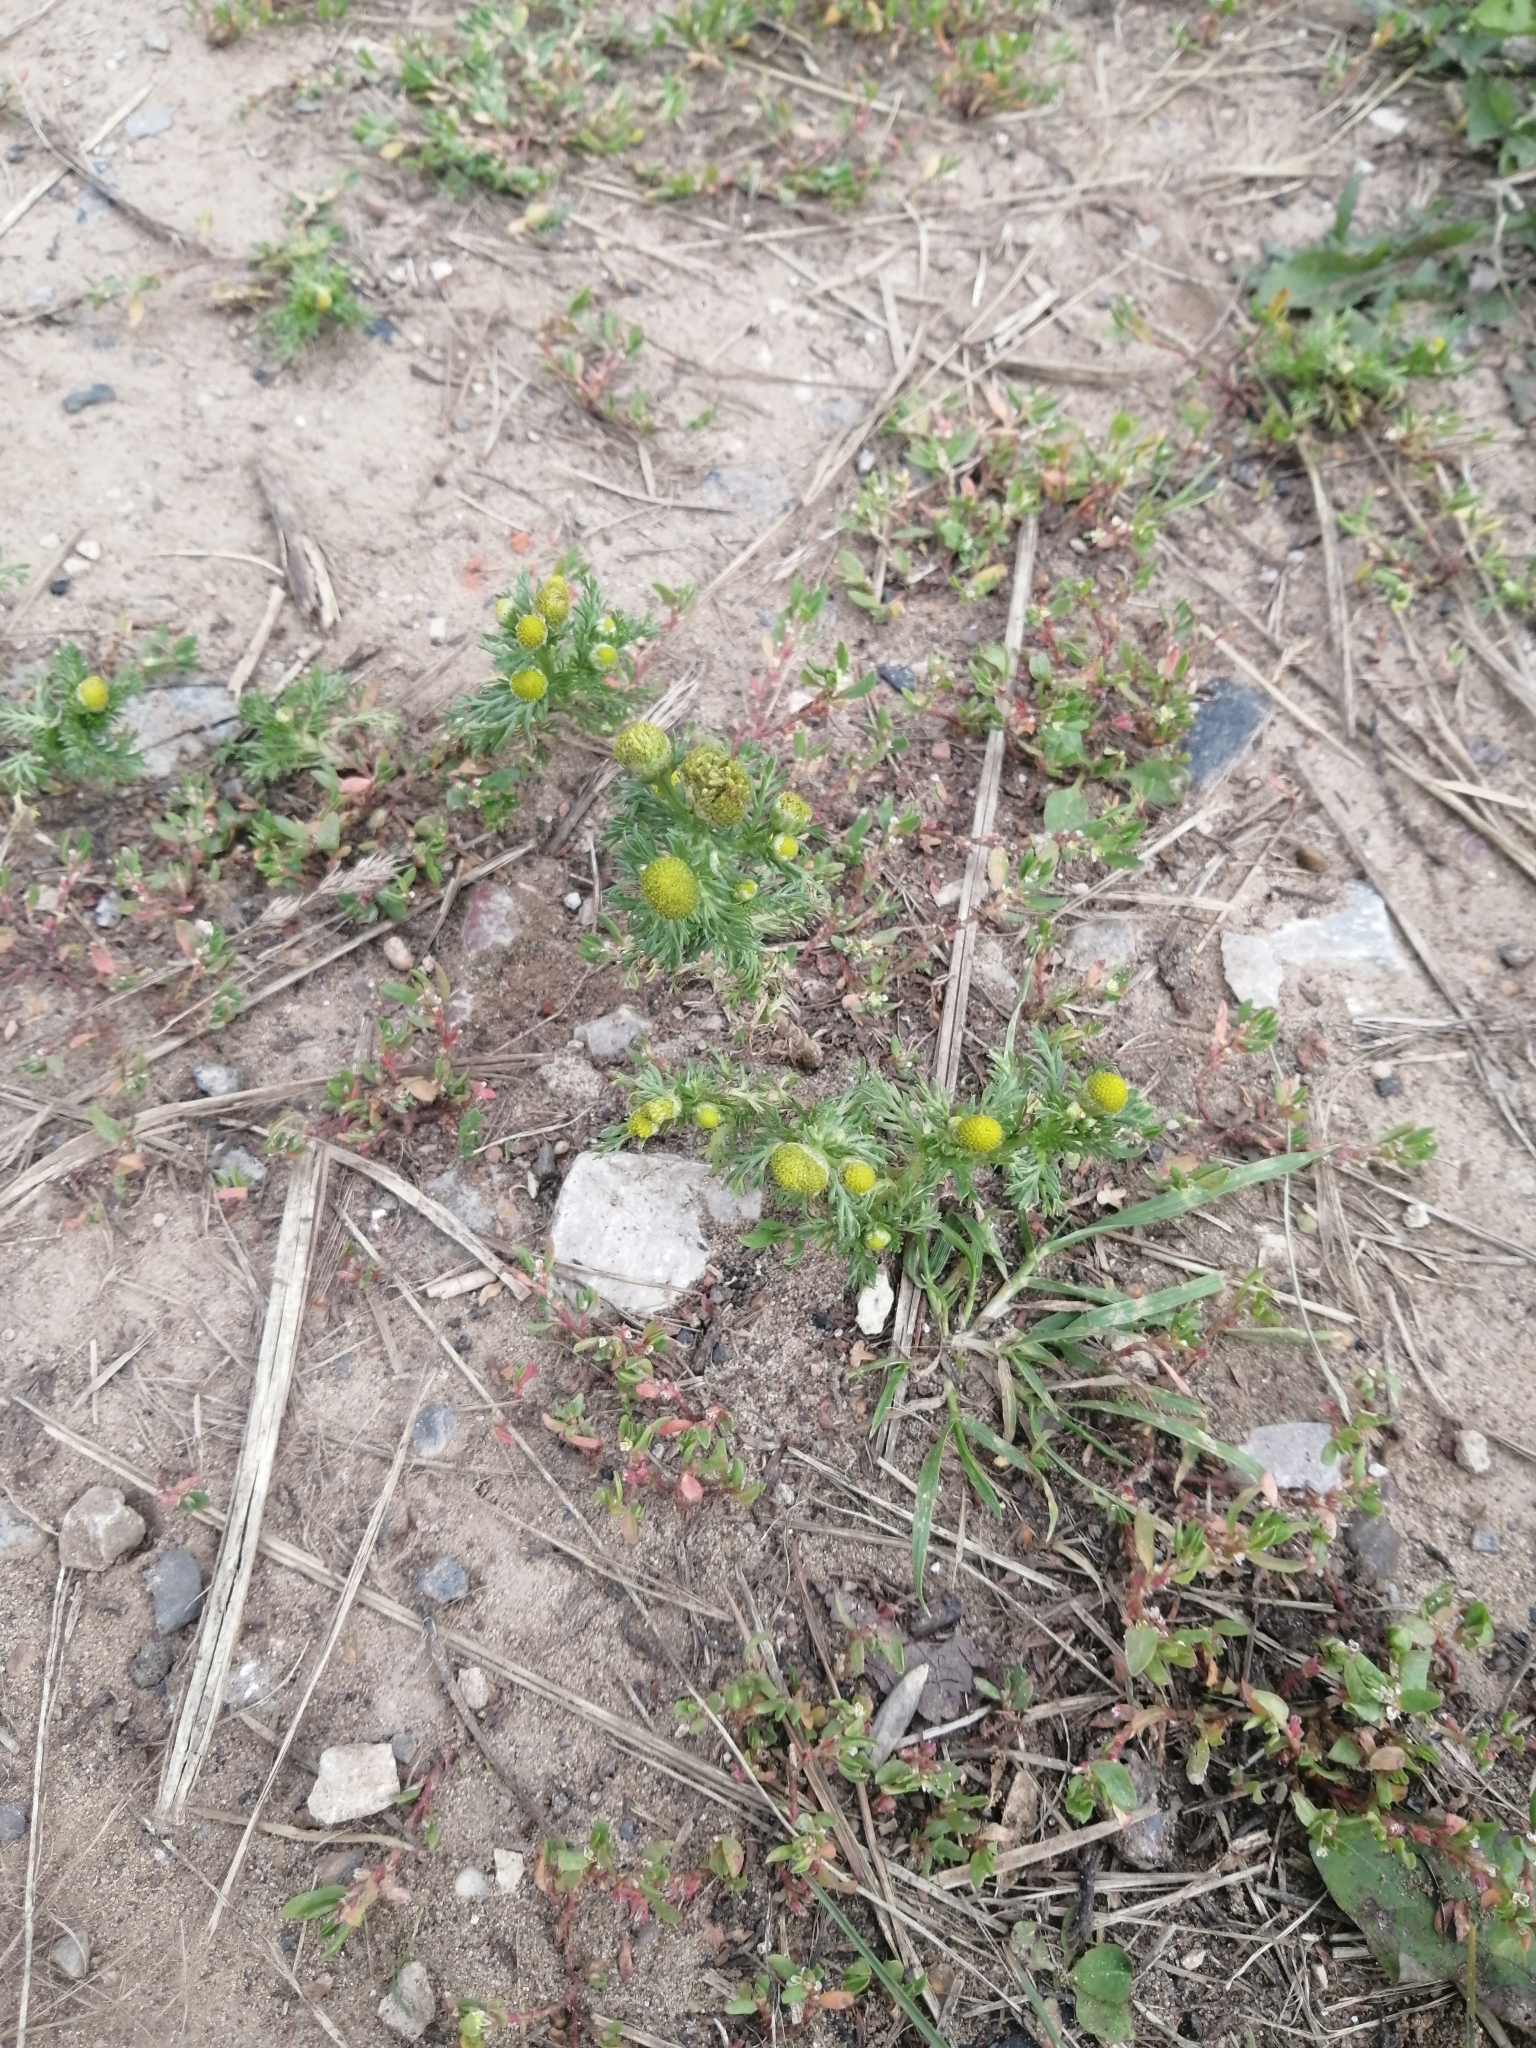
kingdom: Plantae
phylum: Tracheophyta
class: Magnoliopsida
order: Asterales
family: Asteraceae
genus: Matricaria
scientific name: Matricaria discoidea
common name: Disc mayweed
